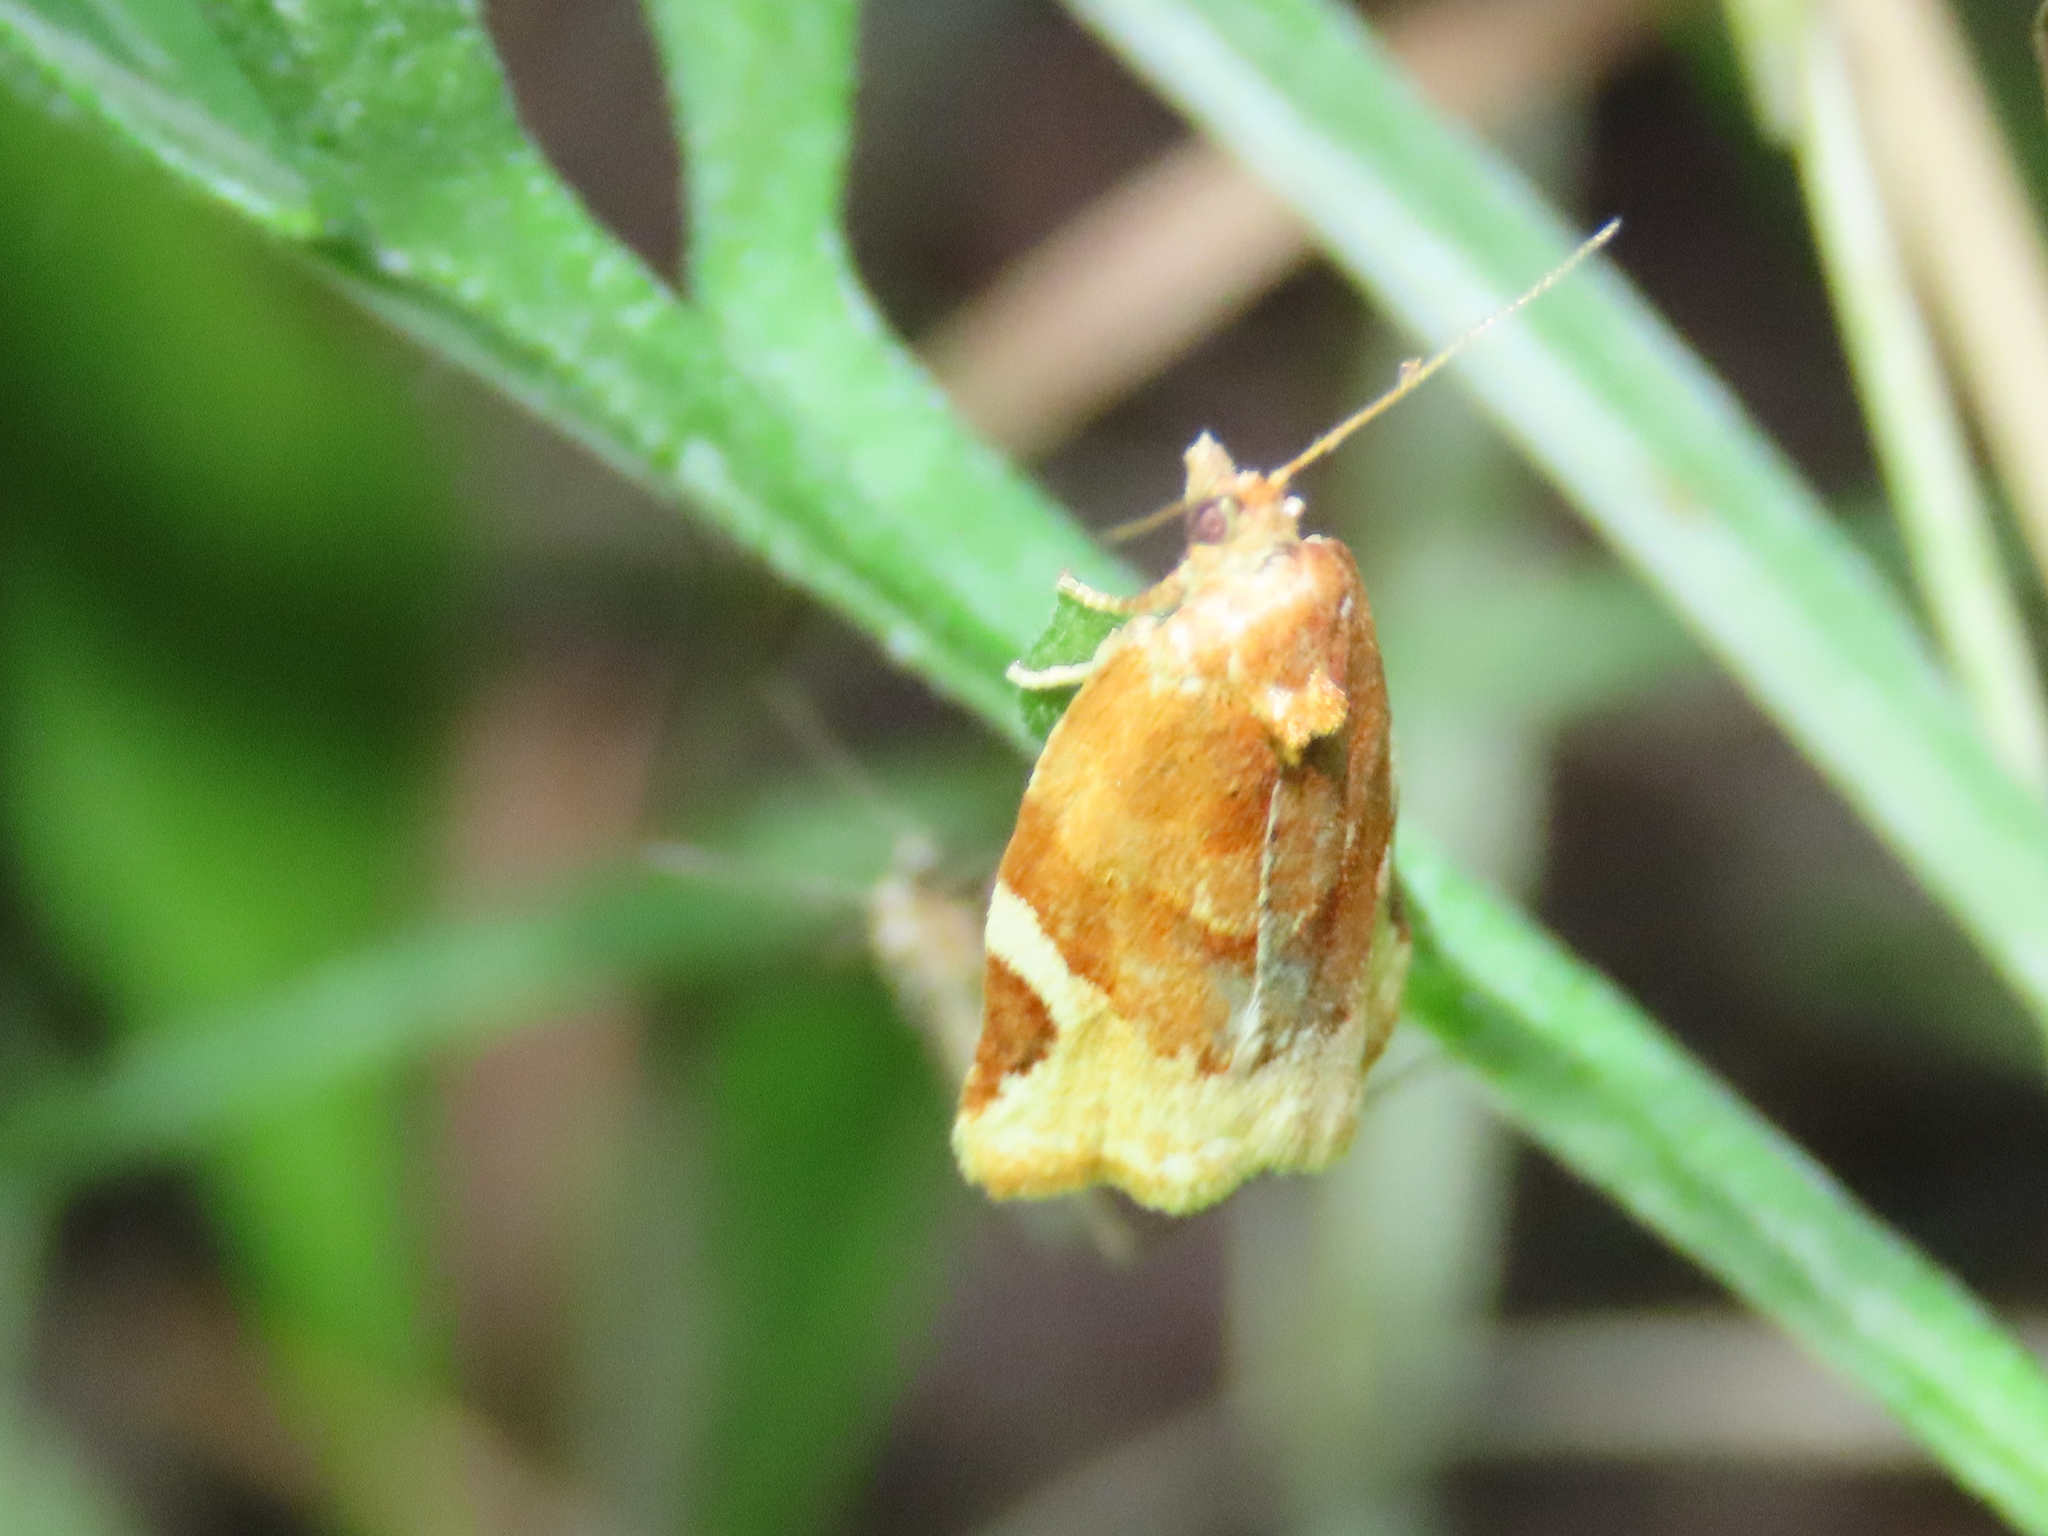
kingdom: Animalia
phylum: Arthropoda
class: Insecta
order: Lepidoptera
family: Tortricidae
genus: Argyrotaenia
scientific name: Argyrotaenia coloradanus
